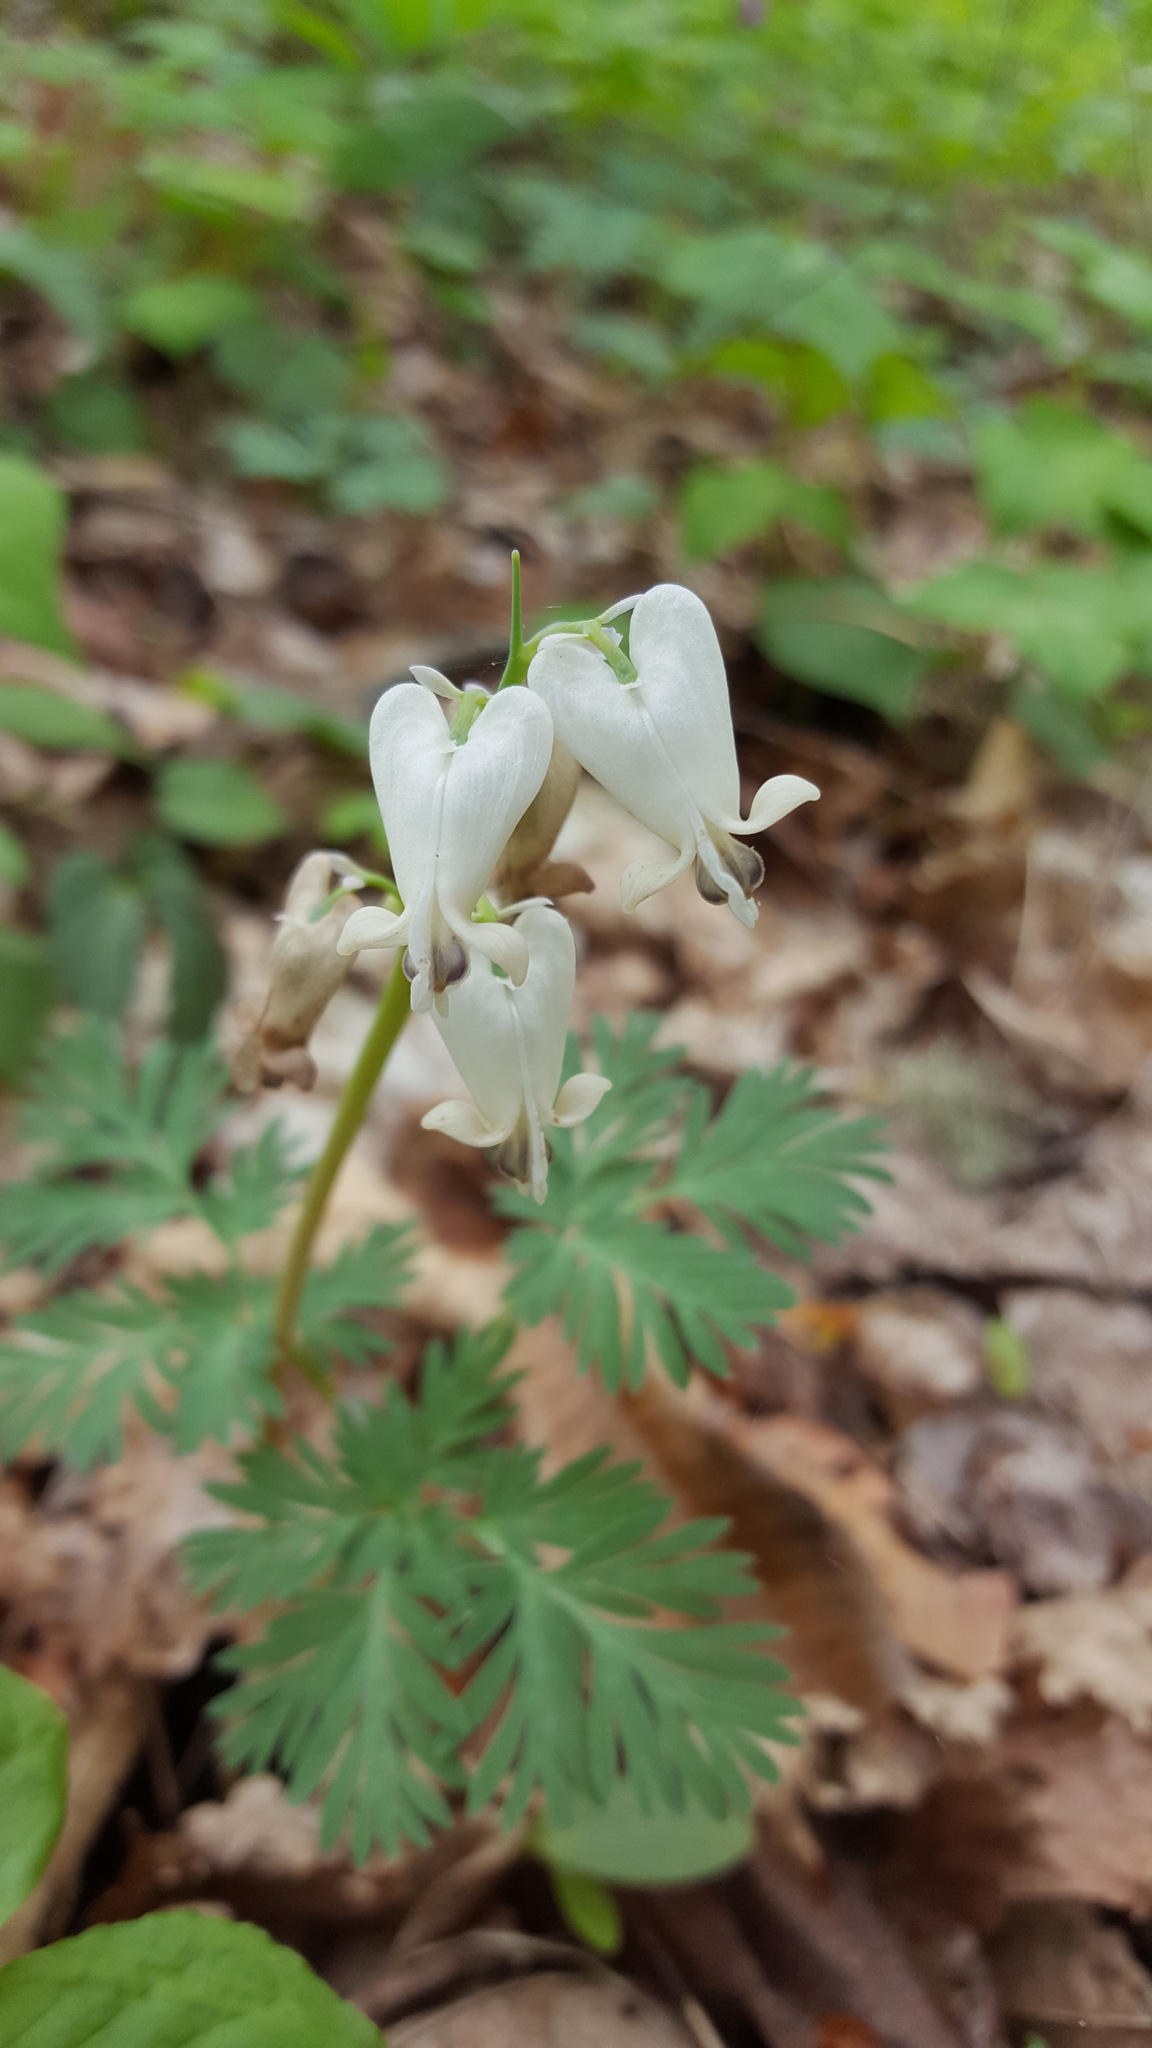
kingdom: Plantae
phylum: Tracheophyta
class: Magnoliopsida
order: Ranunculales
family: Papaveraceae
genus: Dicentra
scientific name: Dicentra canadensis
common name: Squirrel-corn
